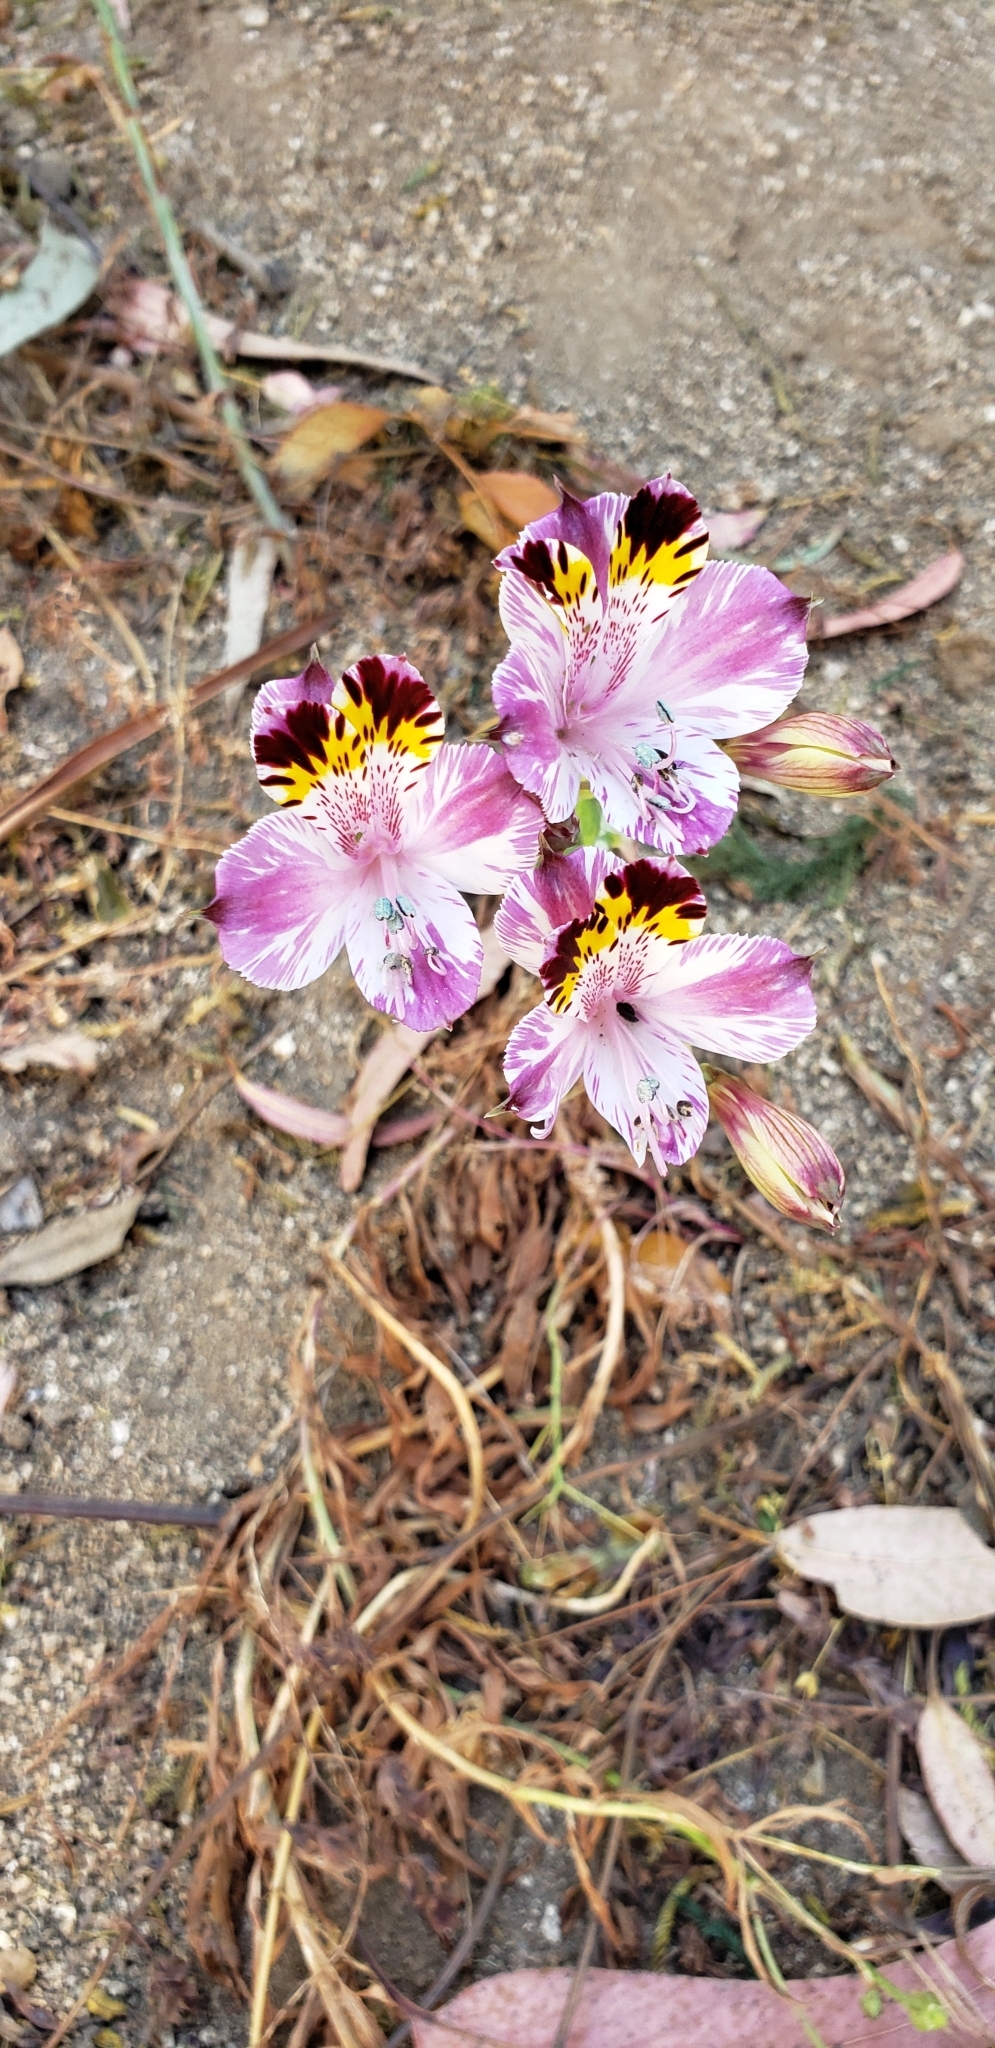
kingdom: Plantae
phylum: Tracheophyta
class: Liliopsida
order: Liliales
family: Alstroemeriaceae
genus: Alstroemeria
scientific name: Alstroemeria pulchra
